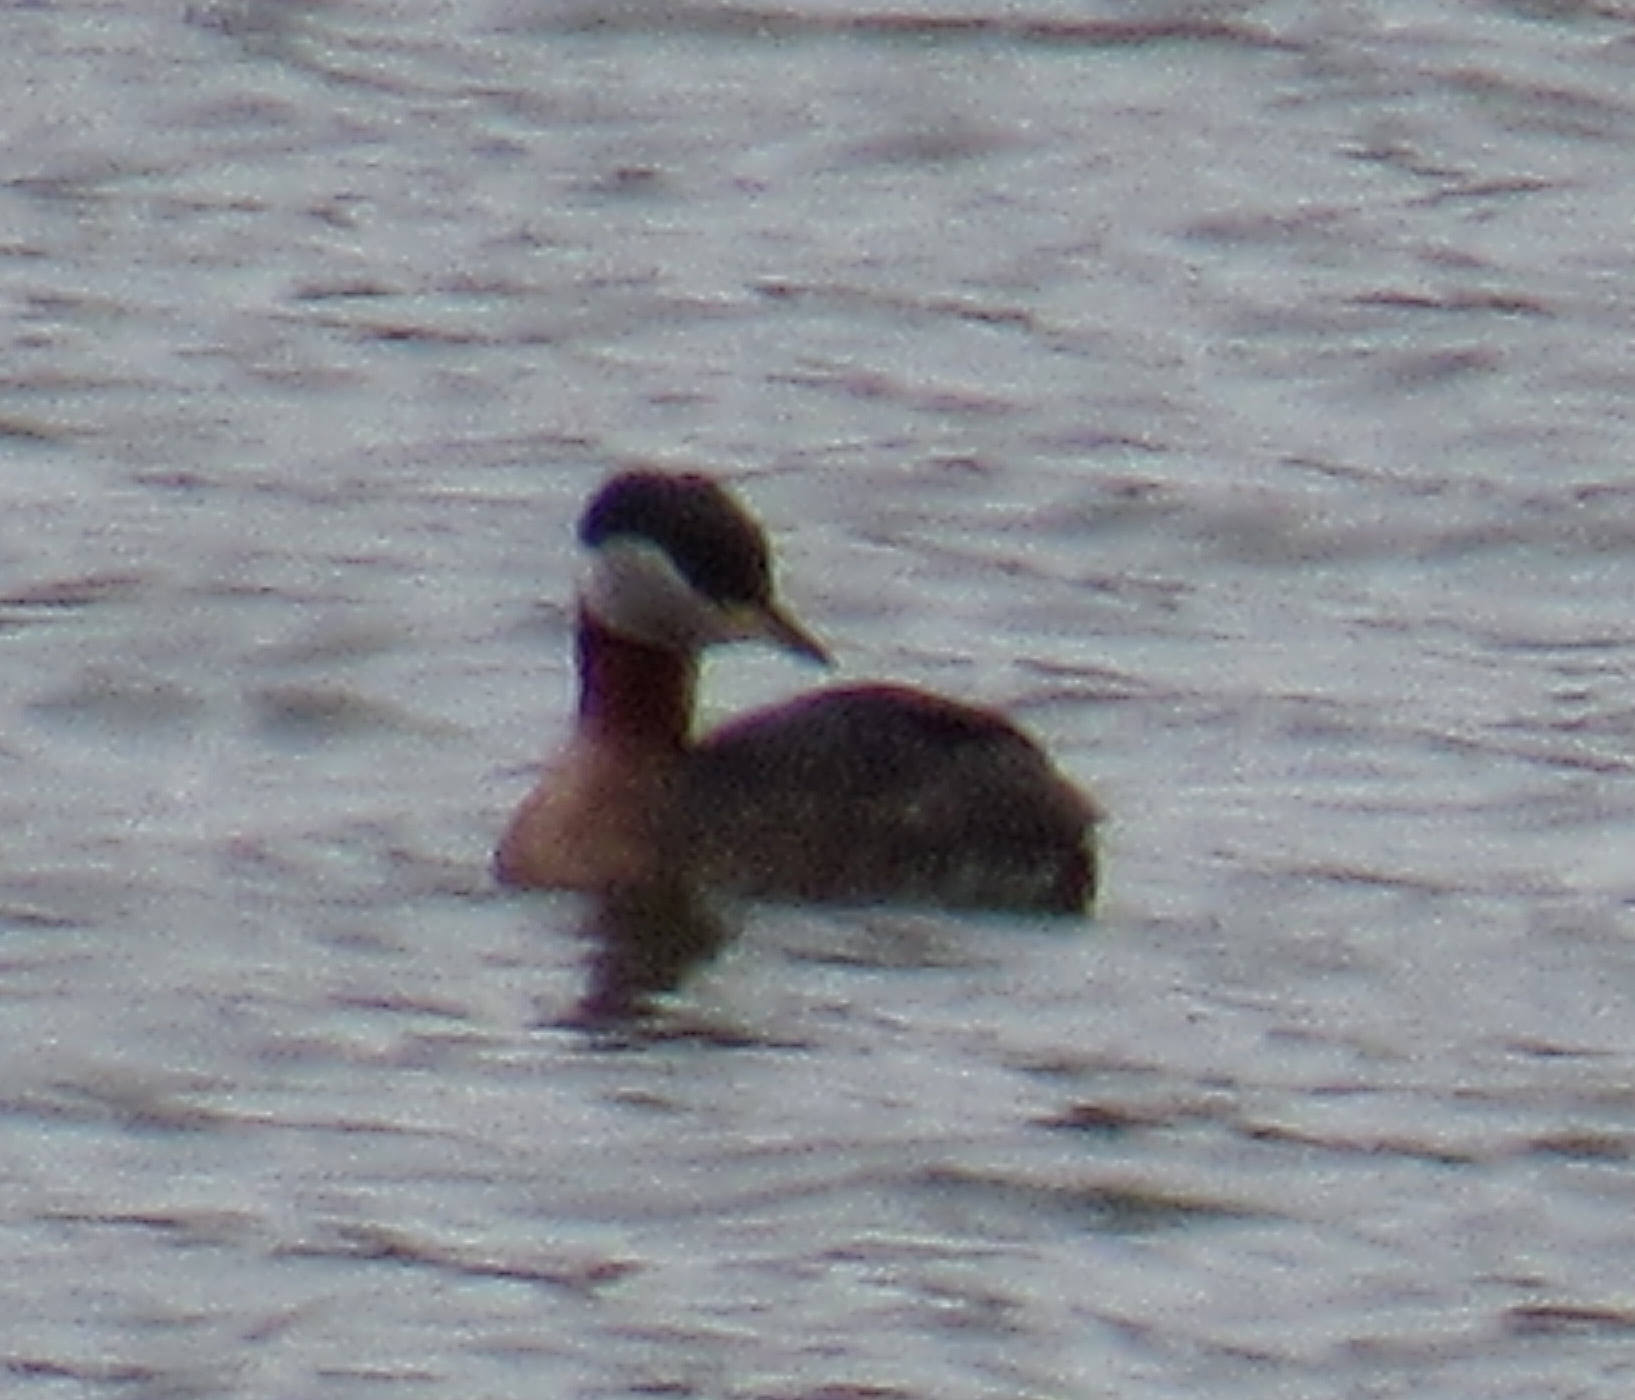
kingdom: Animalia
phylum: Chordata
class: Aves
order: Podicipediformes
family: Podicipedidae
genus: Podiceps
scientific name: Podiceps grisegena
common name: Red-necked grebe
